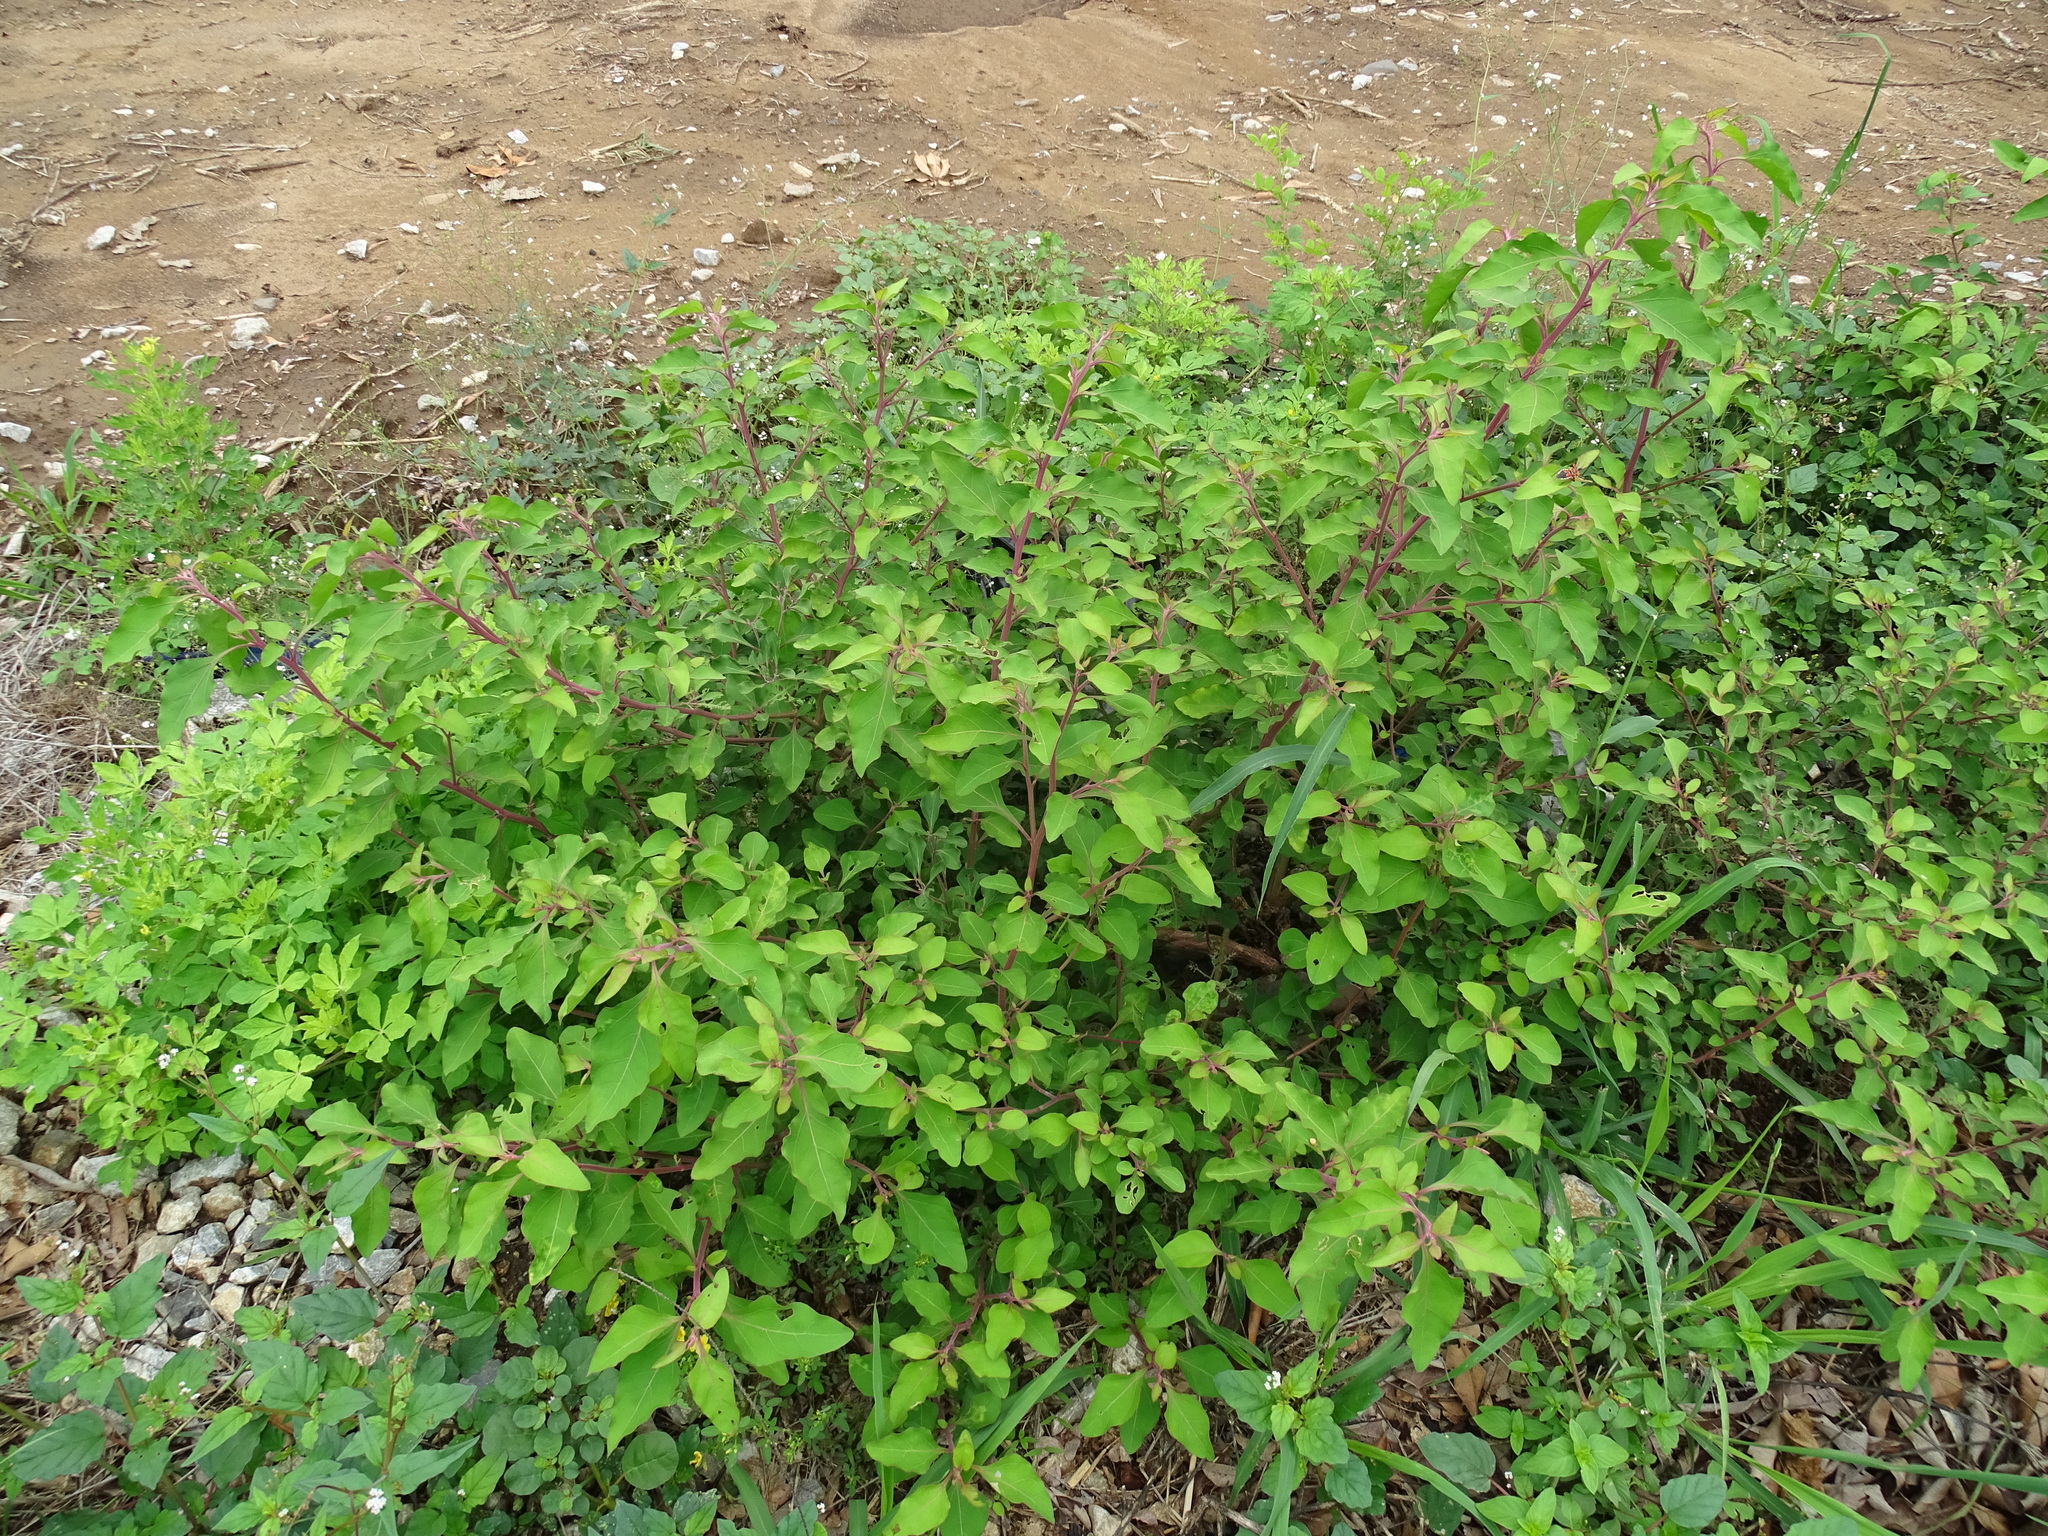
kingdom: Plantae
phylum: Tracheophyta
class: Magnoliopsida
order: Caryophyllales
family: Nyctaginaceae
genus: Salpianthus
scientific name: Salpianthus arenarius
